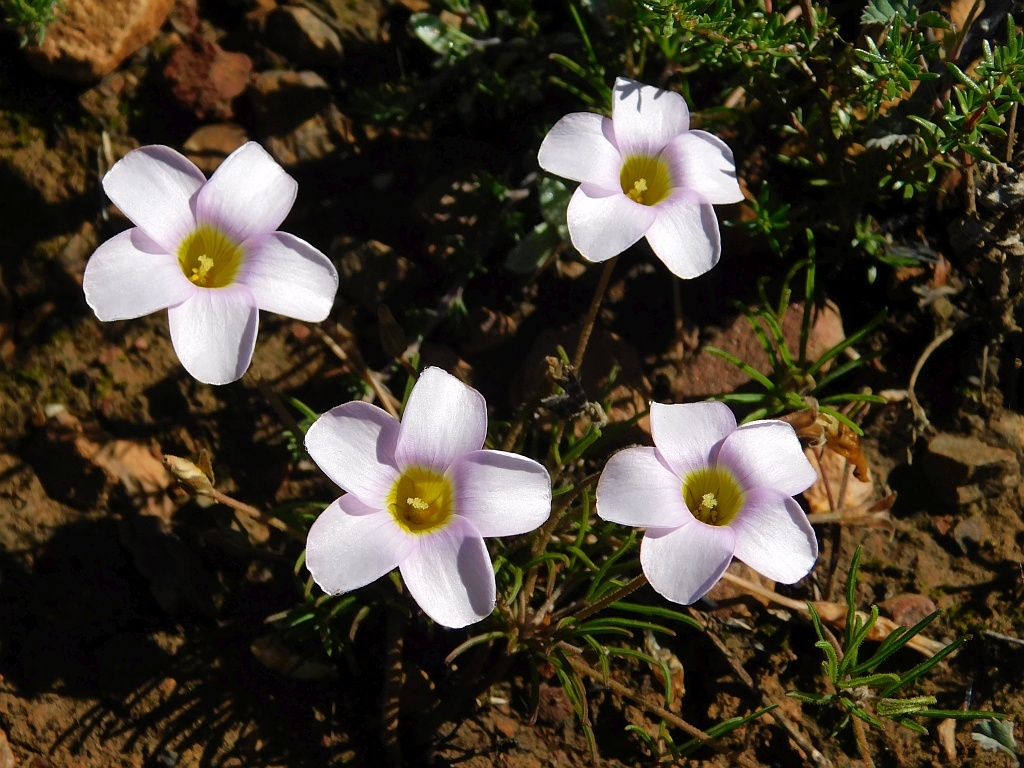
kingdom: Plantae
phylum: Tracheophyta
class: Magnoliopsida
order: Oxalidales
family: Oxalidaceae
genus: Oxalis
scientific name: Oxalis polyphylla
